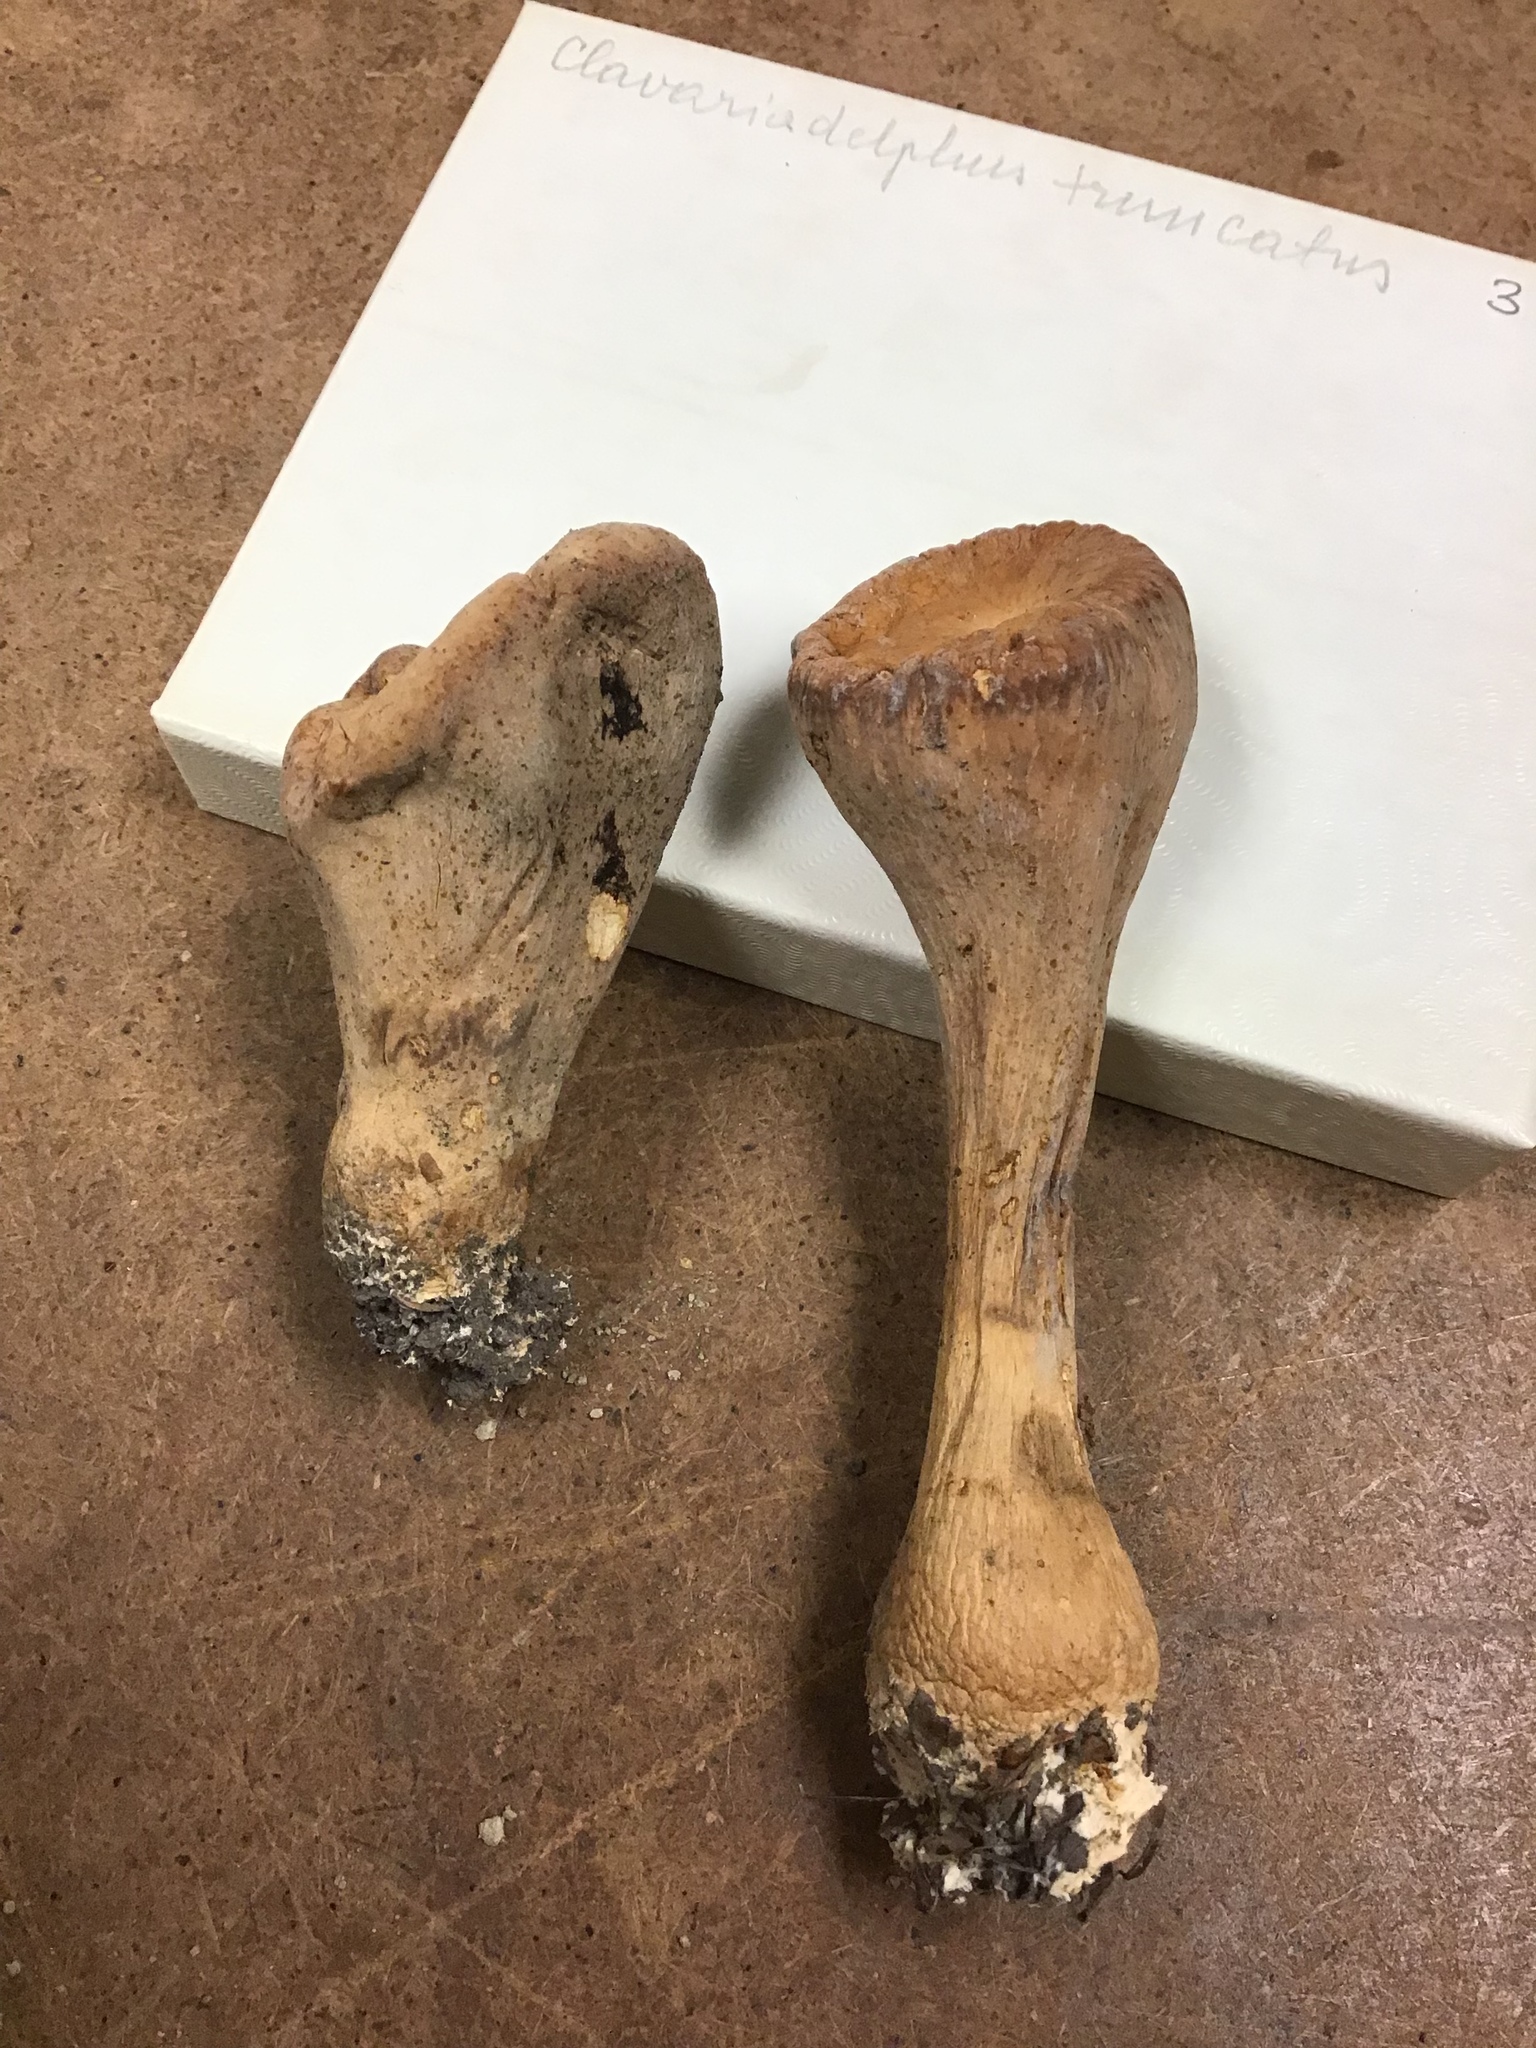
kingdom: Fungi
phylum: Basidiomycota
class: Agaricomycetes
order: Gomphales
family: Clavariadelphaceae
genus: Clavariadelphus
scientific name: Clavariadelphus truncatus
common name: Truncated club
